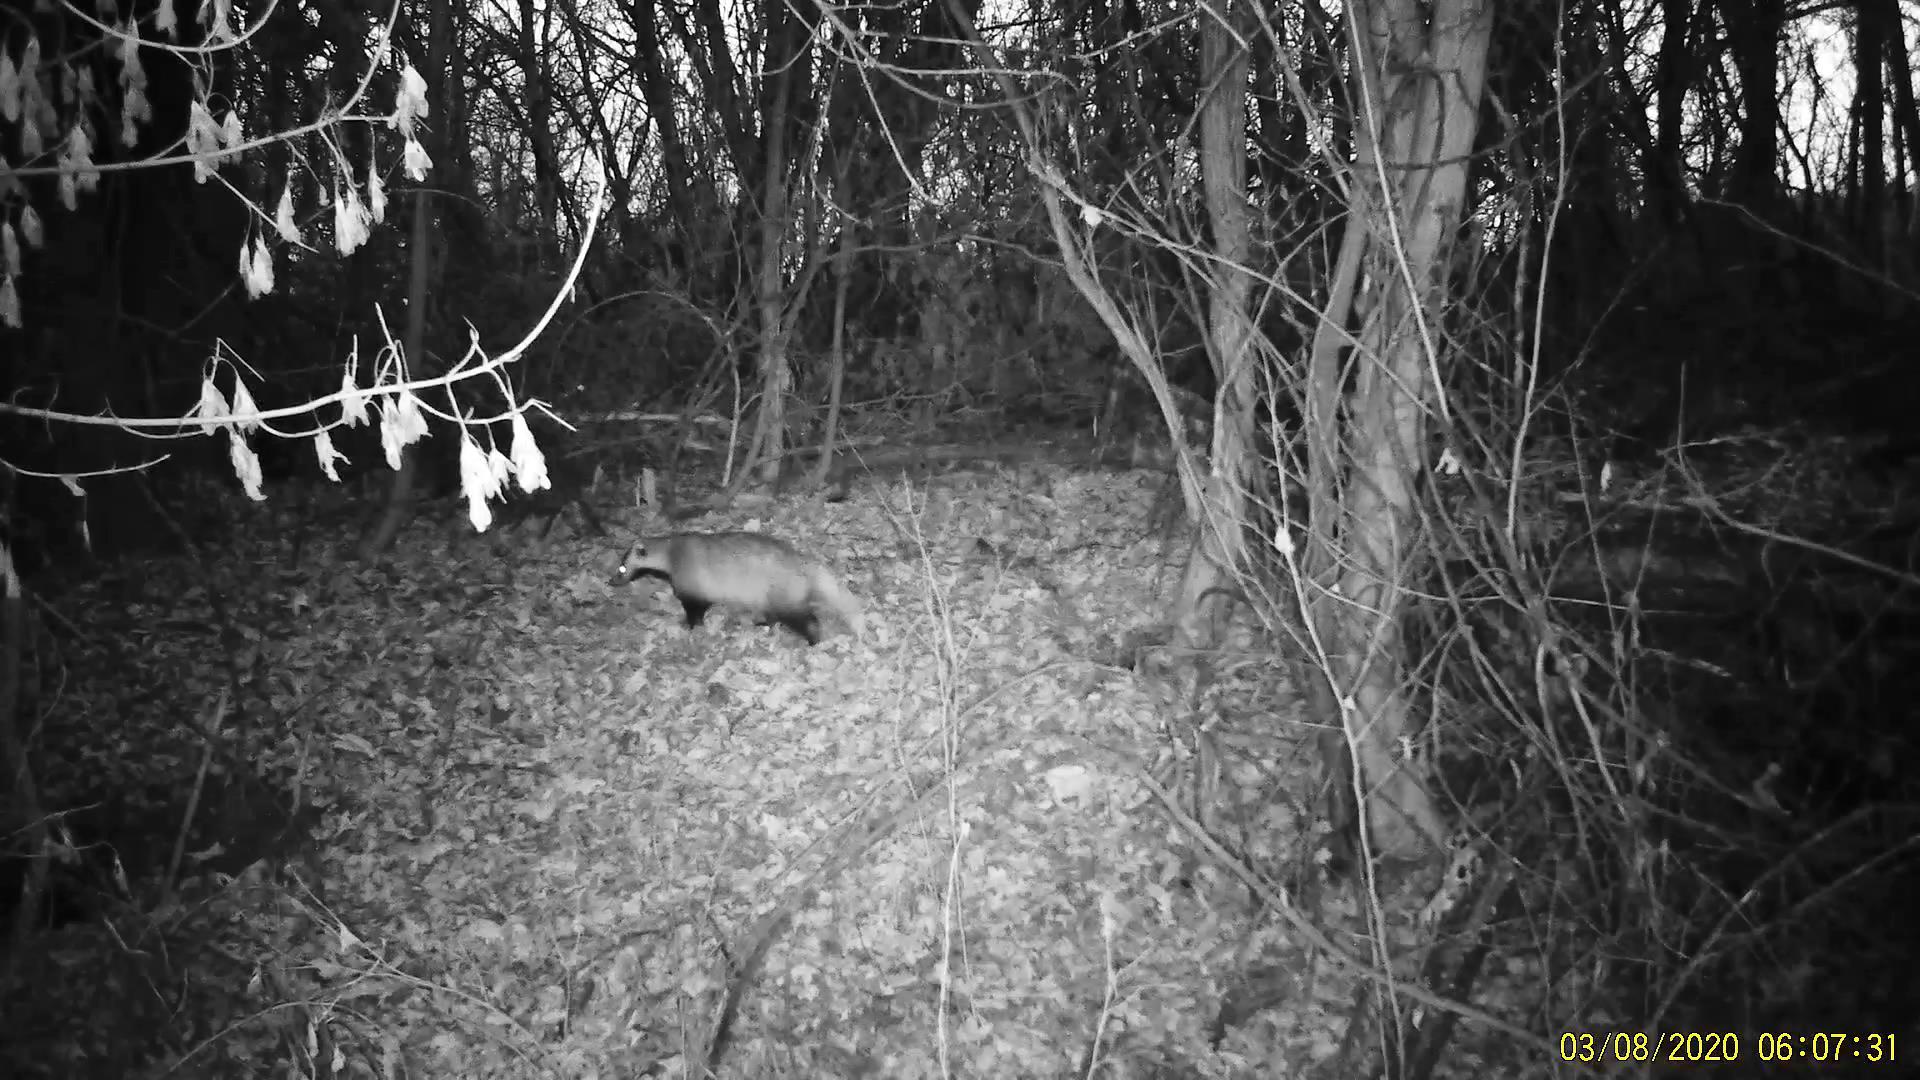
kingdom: Animalia
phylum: Chordata
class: Mammalia
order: Carnivora
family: Mustelidae
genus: Meles
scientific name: Meles leucurus
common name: Asian badger
